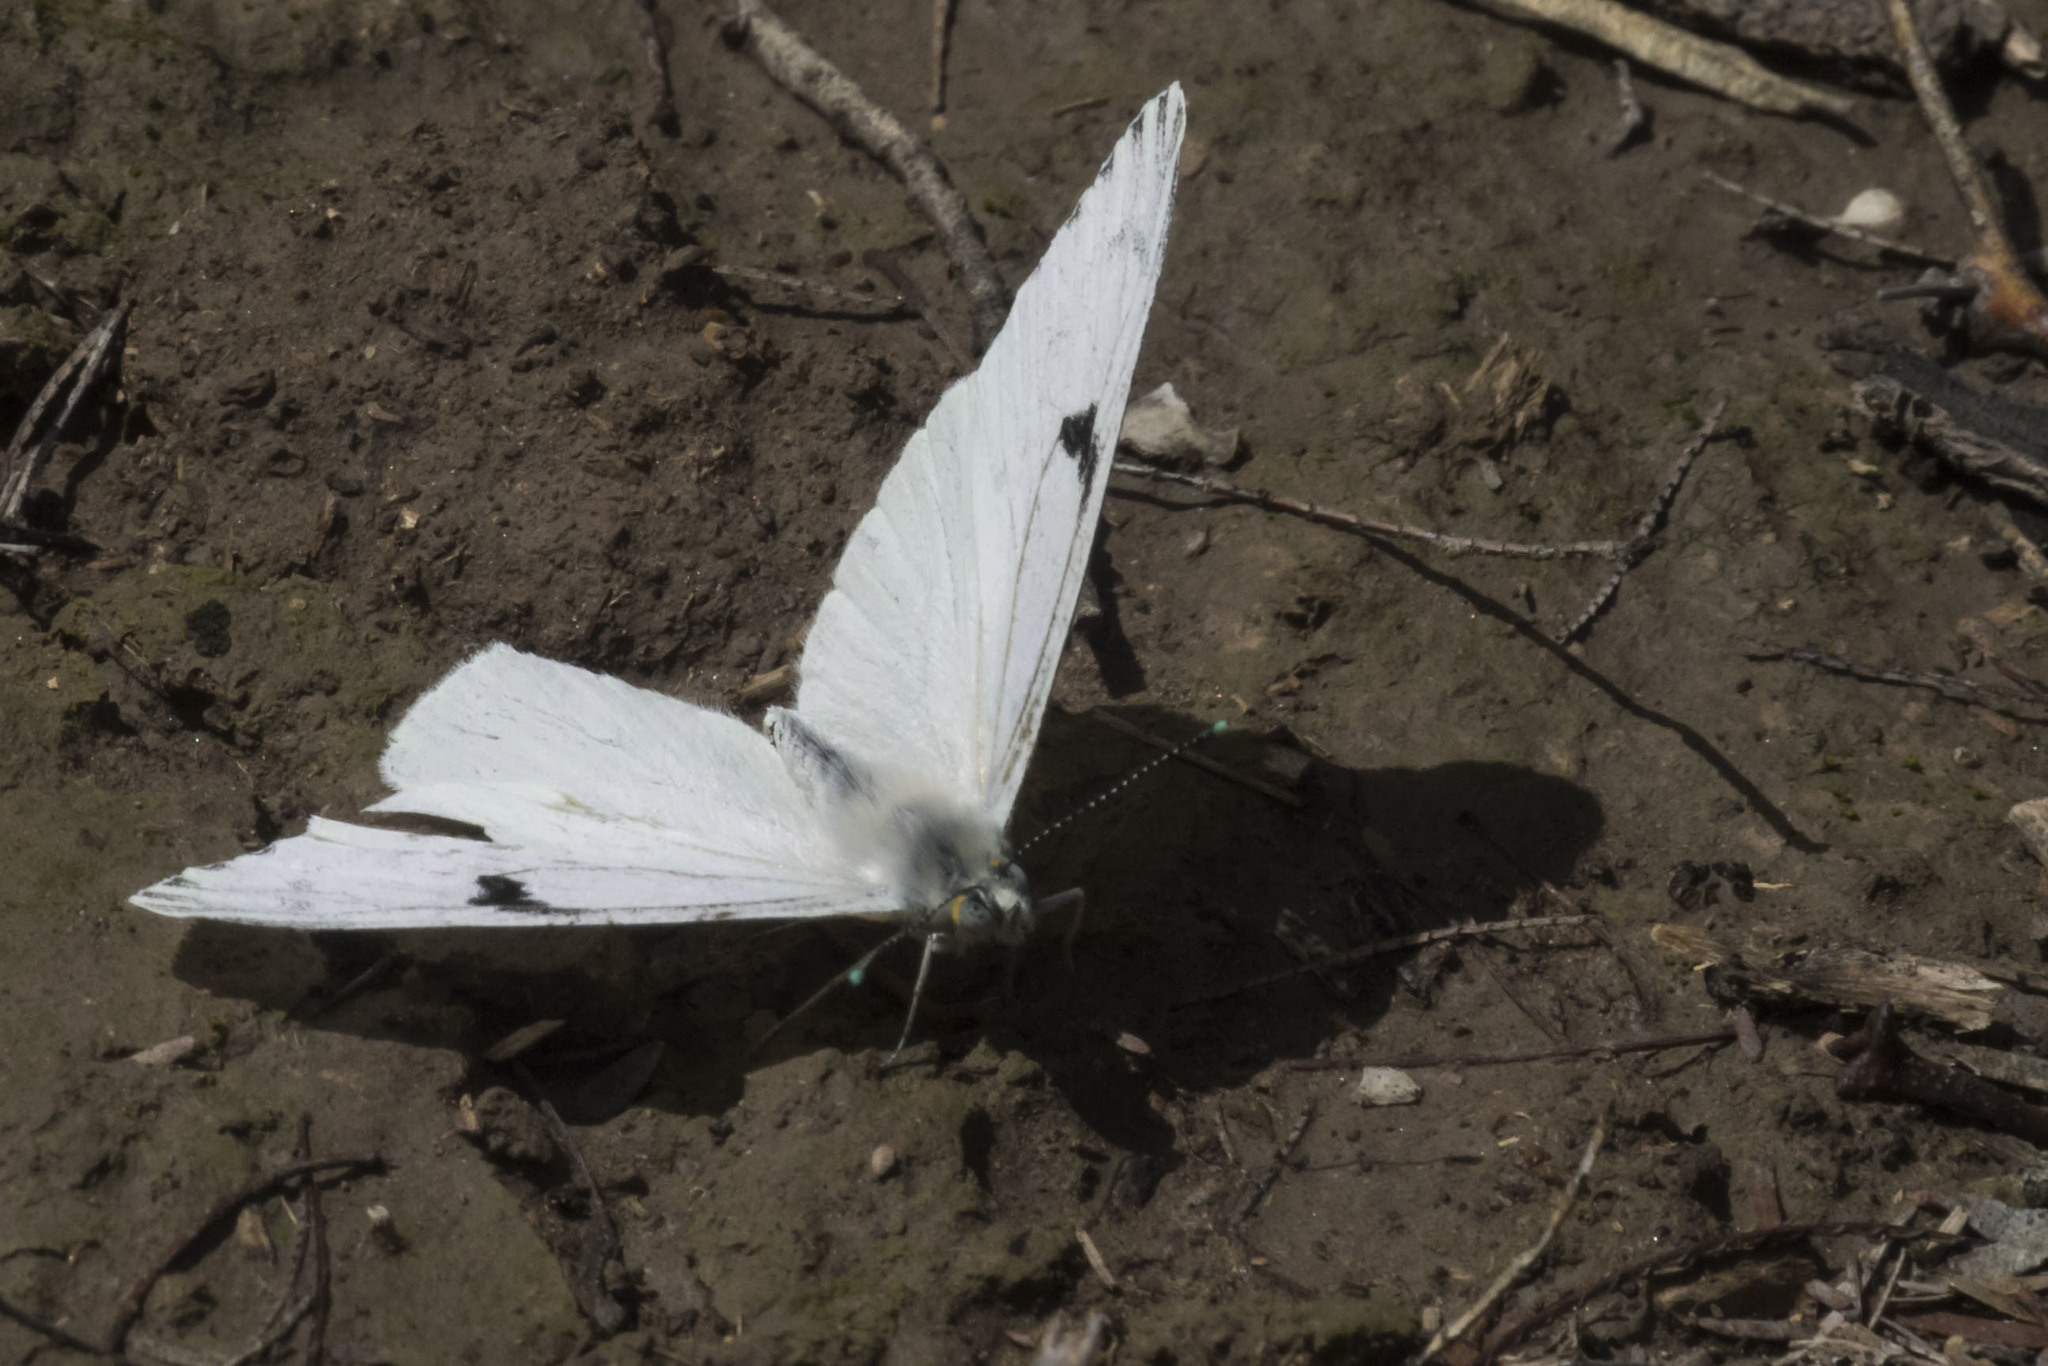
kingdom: Animalia
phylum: Arthropoda
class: Insecta
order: Lepidoptera
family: Pieridae
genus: Tatochila
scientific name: Tatochila mercedis
